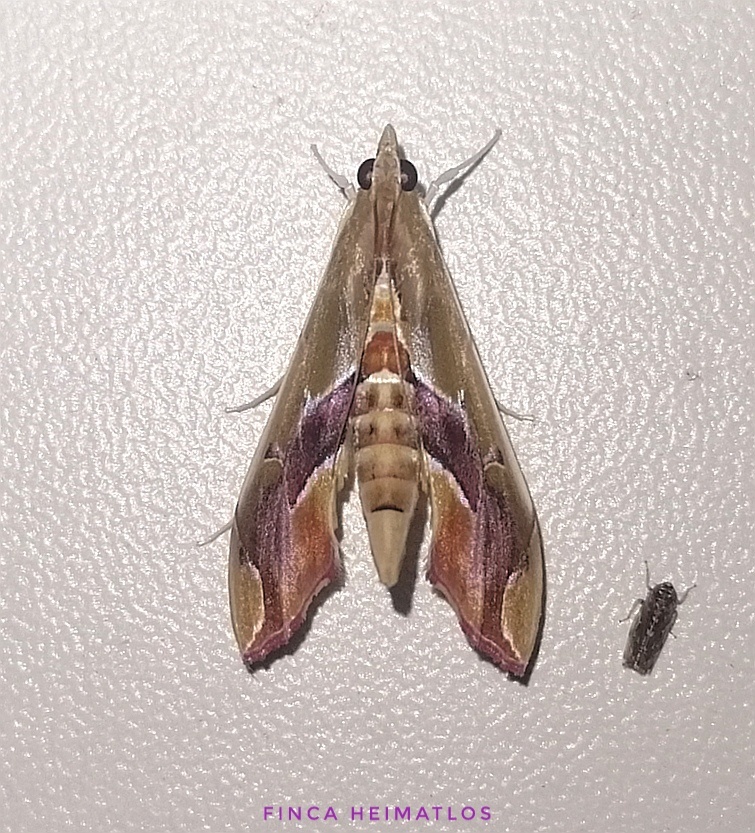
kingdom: Animalia
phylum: Arthropoda
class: Insecta
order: Lepidoptera
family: Crambidae
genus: Agathodes
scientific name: Agathodes designalis
